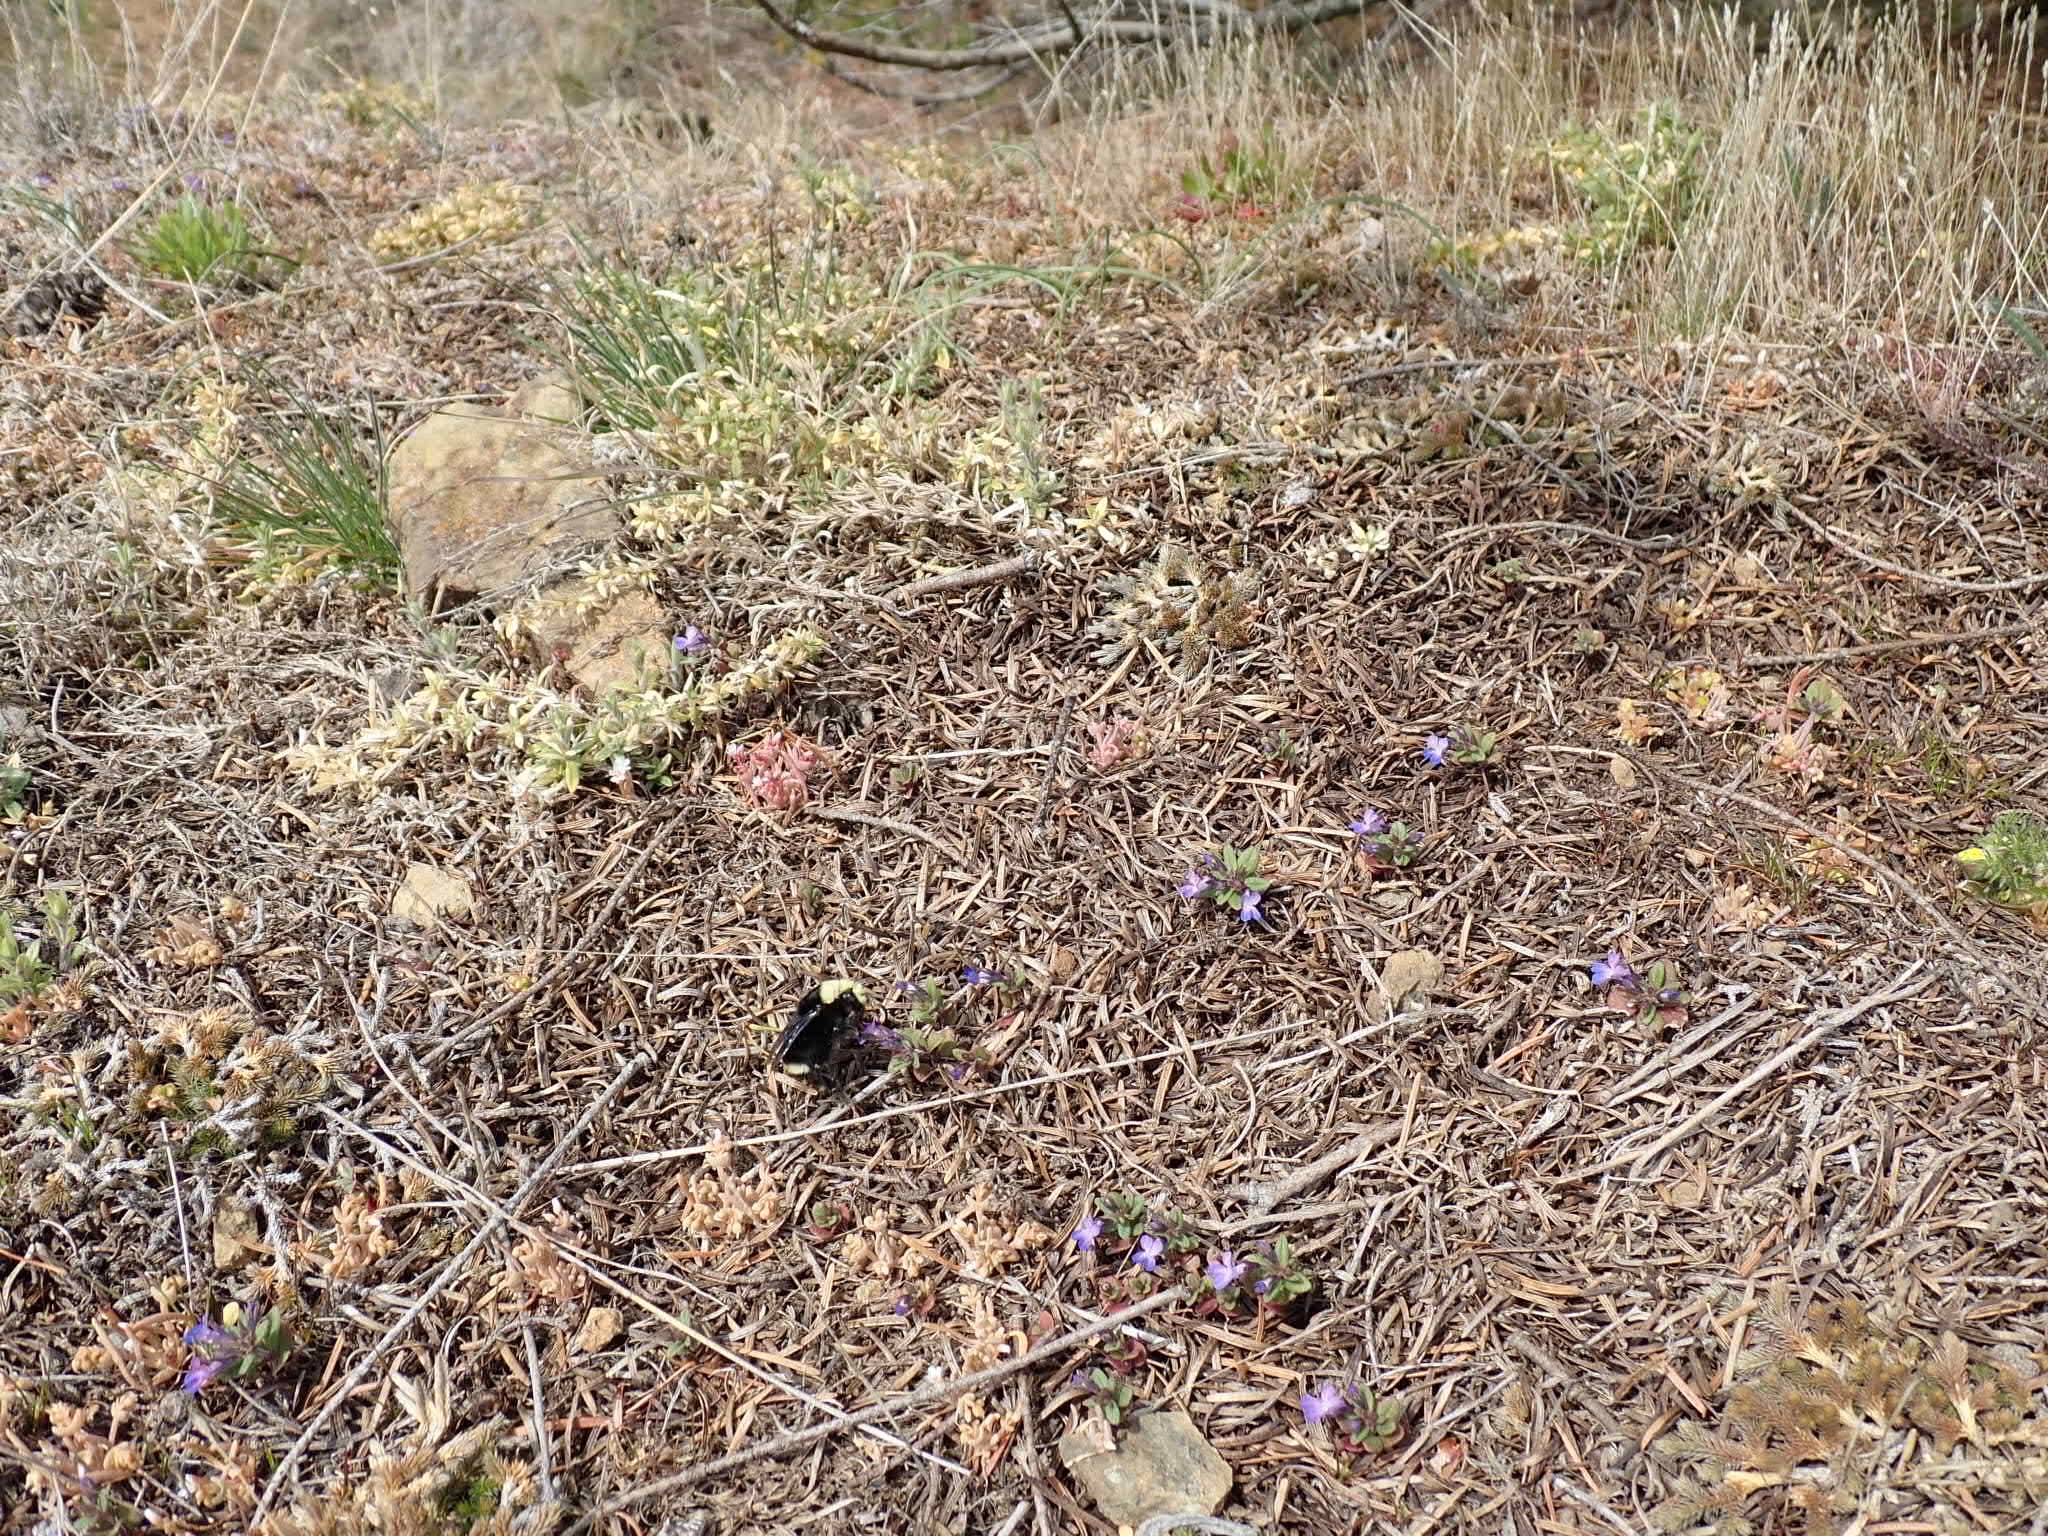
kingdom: Plantae
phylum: Tracheophyta
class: Magnoliopsida
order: Lamiales
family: Plantaginaceae
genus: Collinsia
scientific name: Collinsia parviflora
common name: Blue-lips
